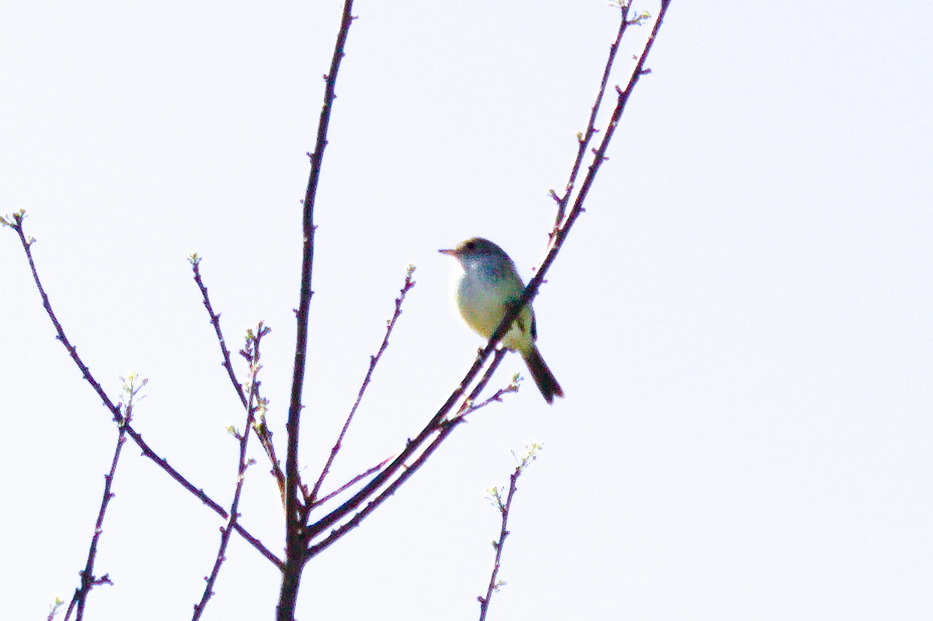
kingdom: Animalia
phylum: Chordata
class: Aves
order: Passeriformes
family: Tyrannidae
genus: Euscarthmus
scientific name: Euscarthmus meloryphus
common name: Tawny-crowned pygmy tyrant
